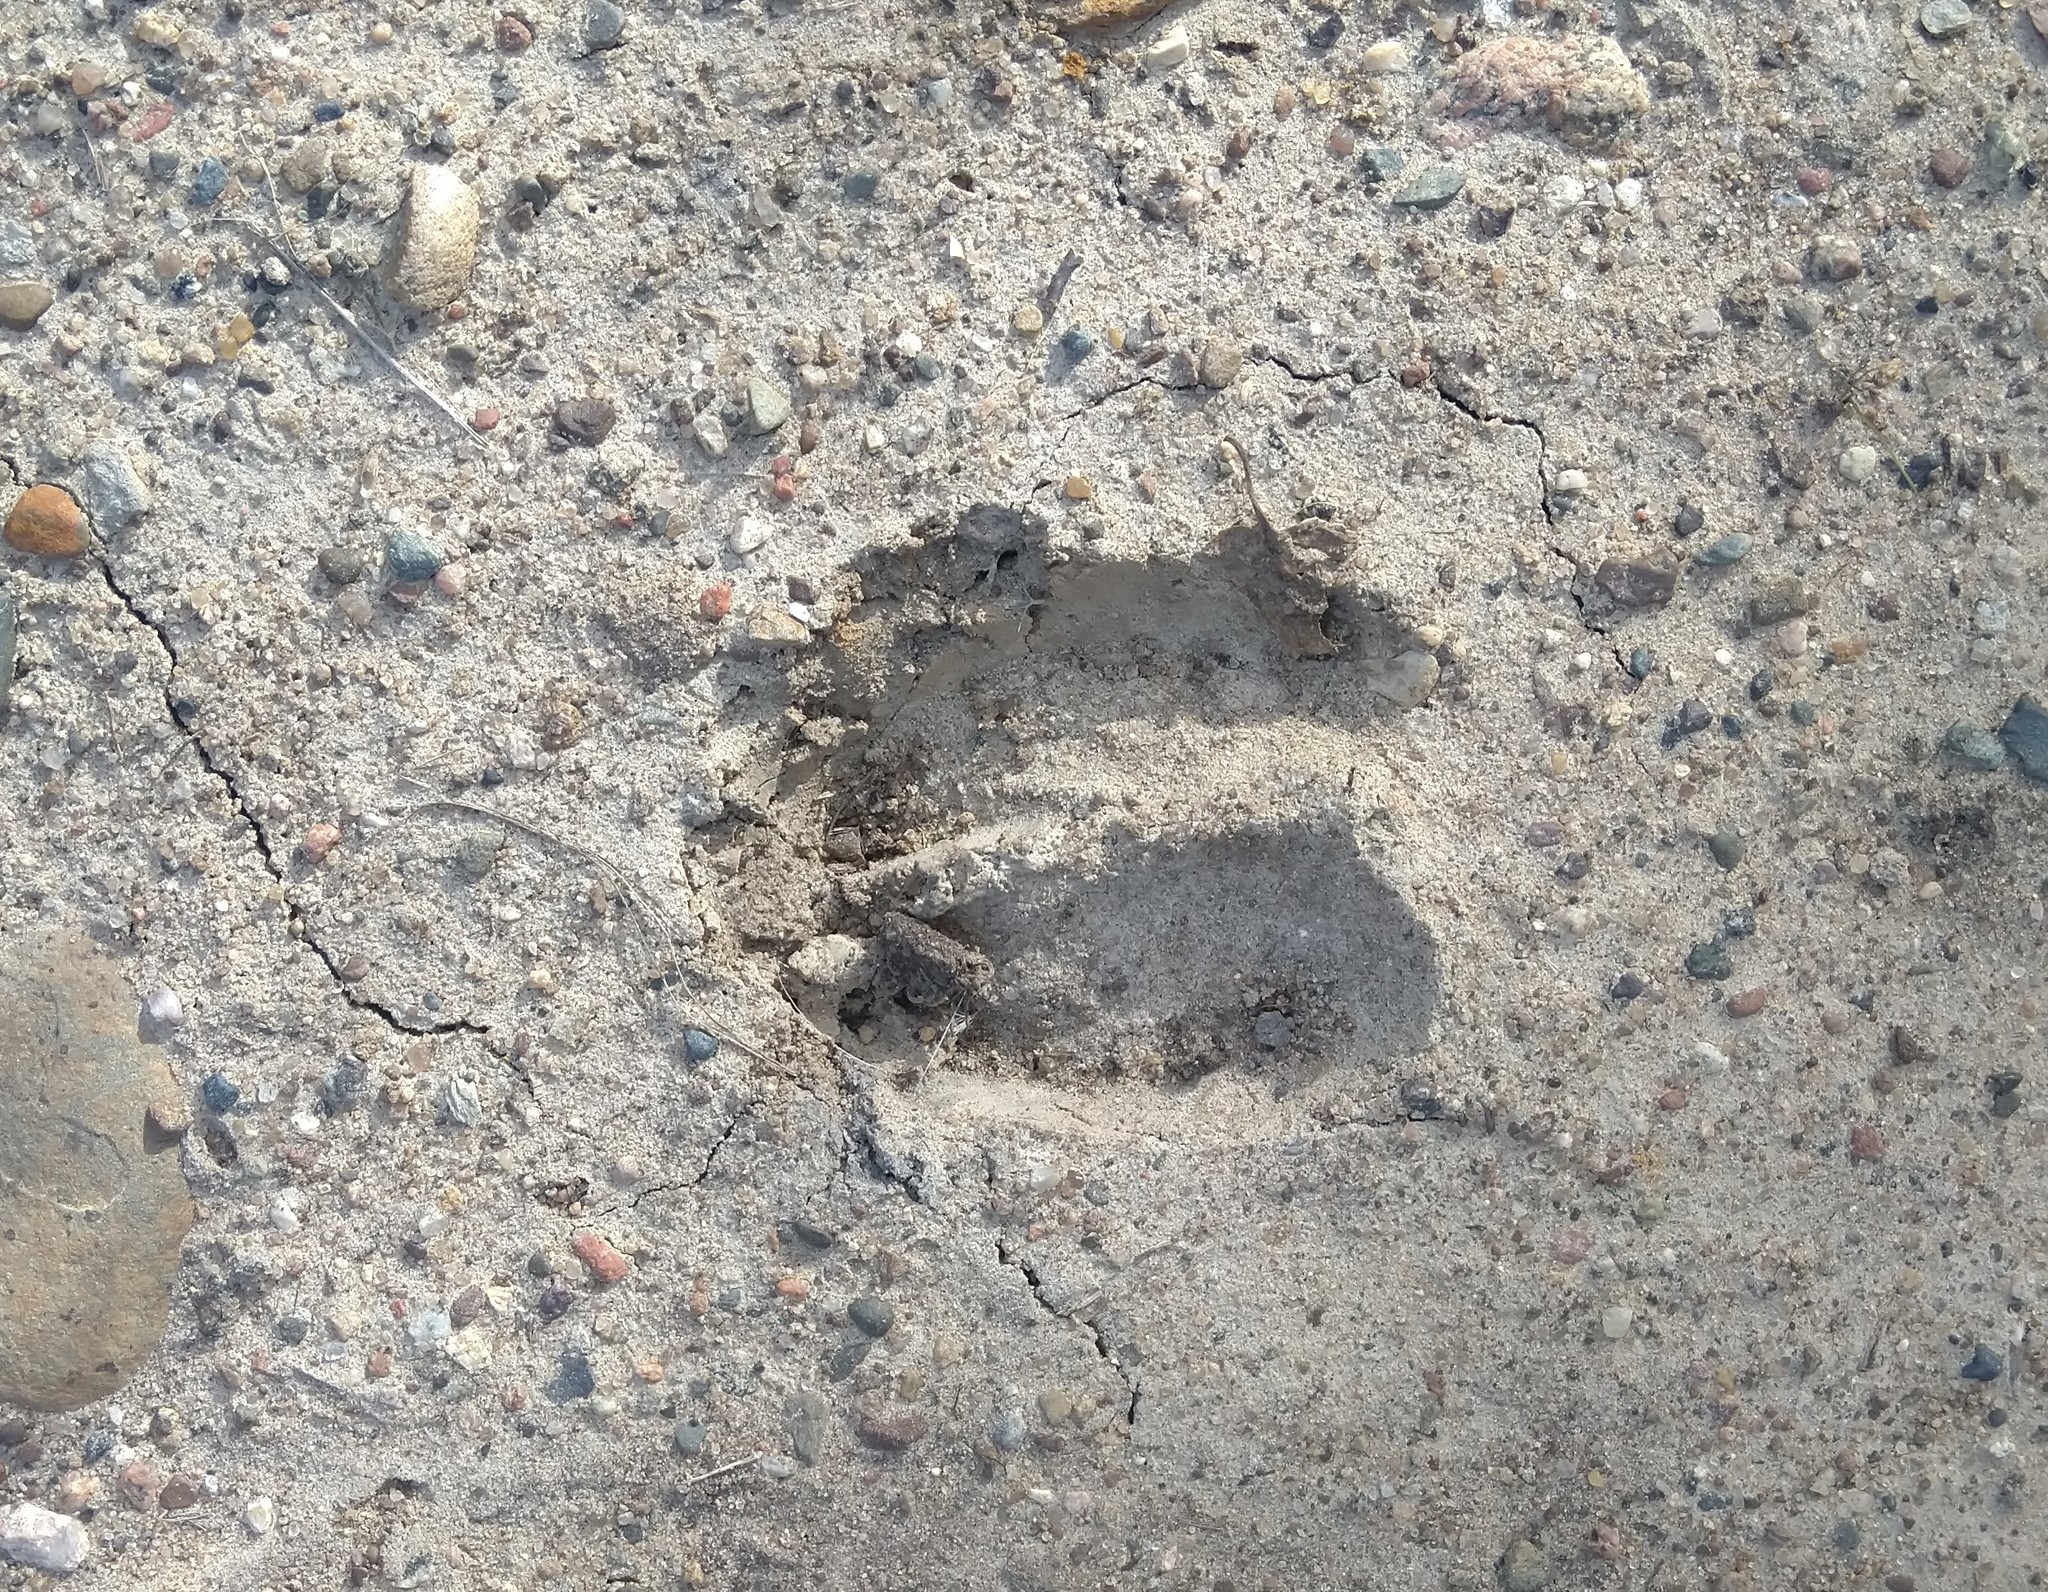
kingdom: Animalia
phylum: Chordata
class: Mammalia
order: Artiodactyla
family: Cervidae
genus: Odocoileus
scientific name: Odocoileus virginianus
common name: White-tailed deer
